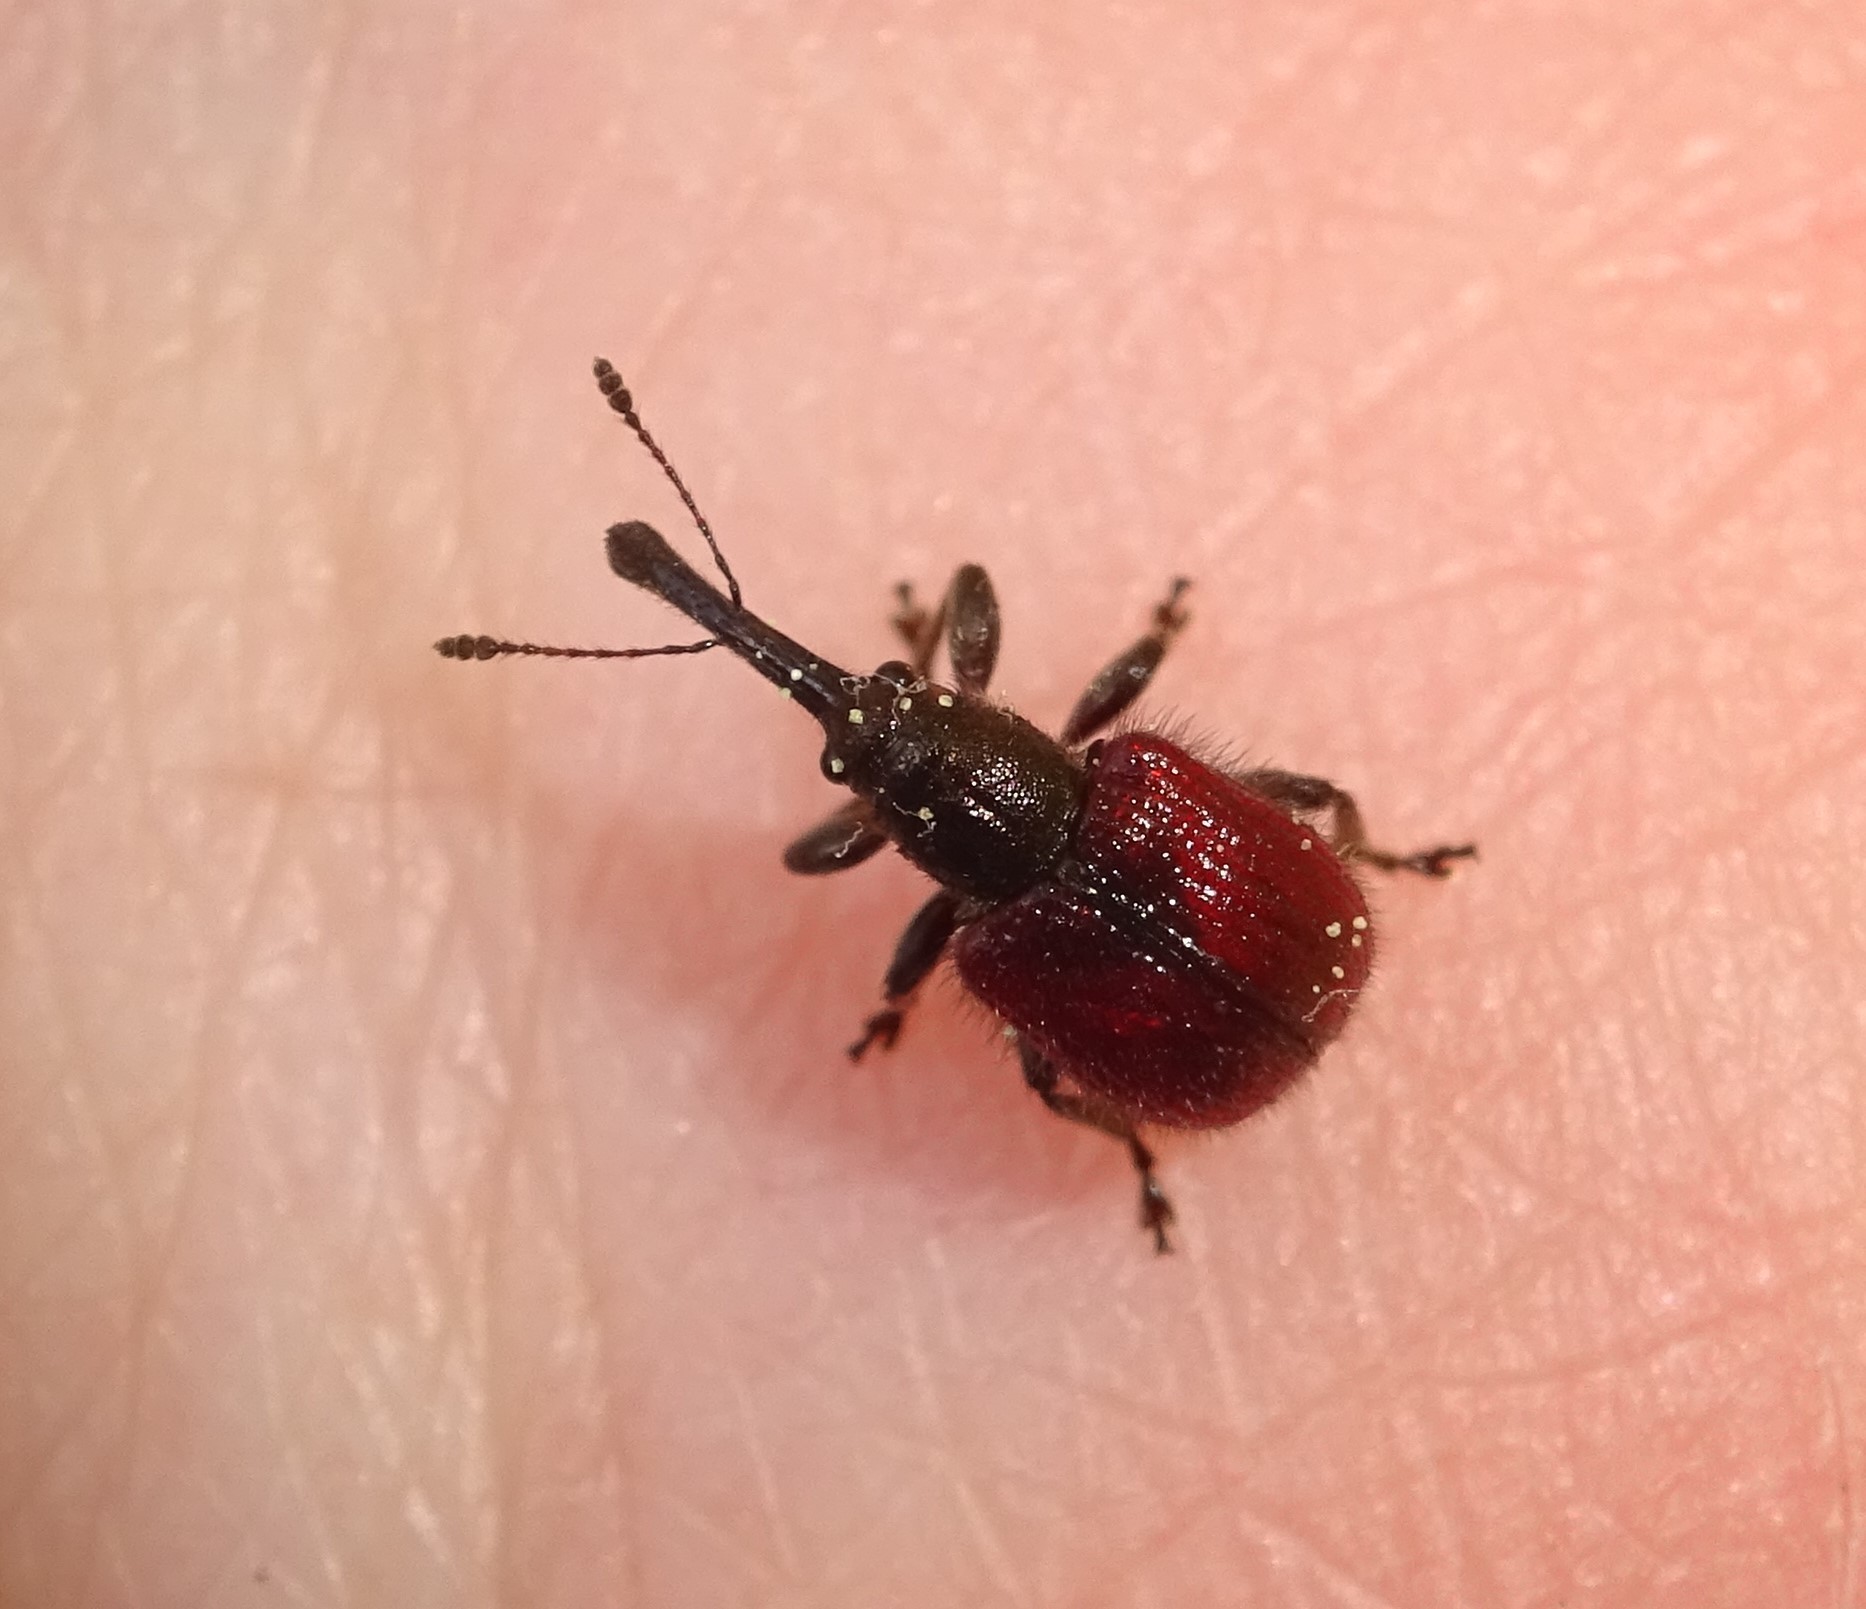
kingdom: Animalia
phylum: Arthropoda
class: Insecta
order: Coleoptera
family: Rhynchitidae
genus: Tatianaerhynchites
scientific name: Tatianaerhynchites aequatus
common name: Apple fruit rhynchites
